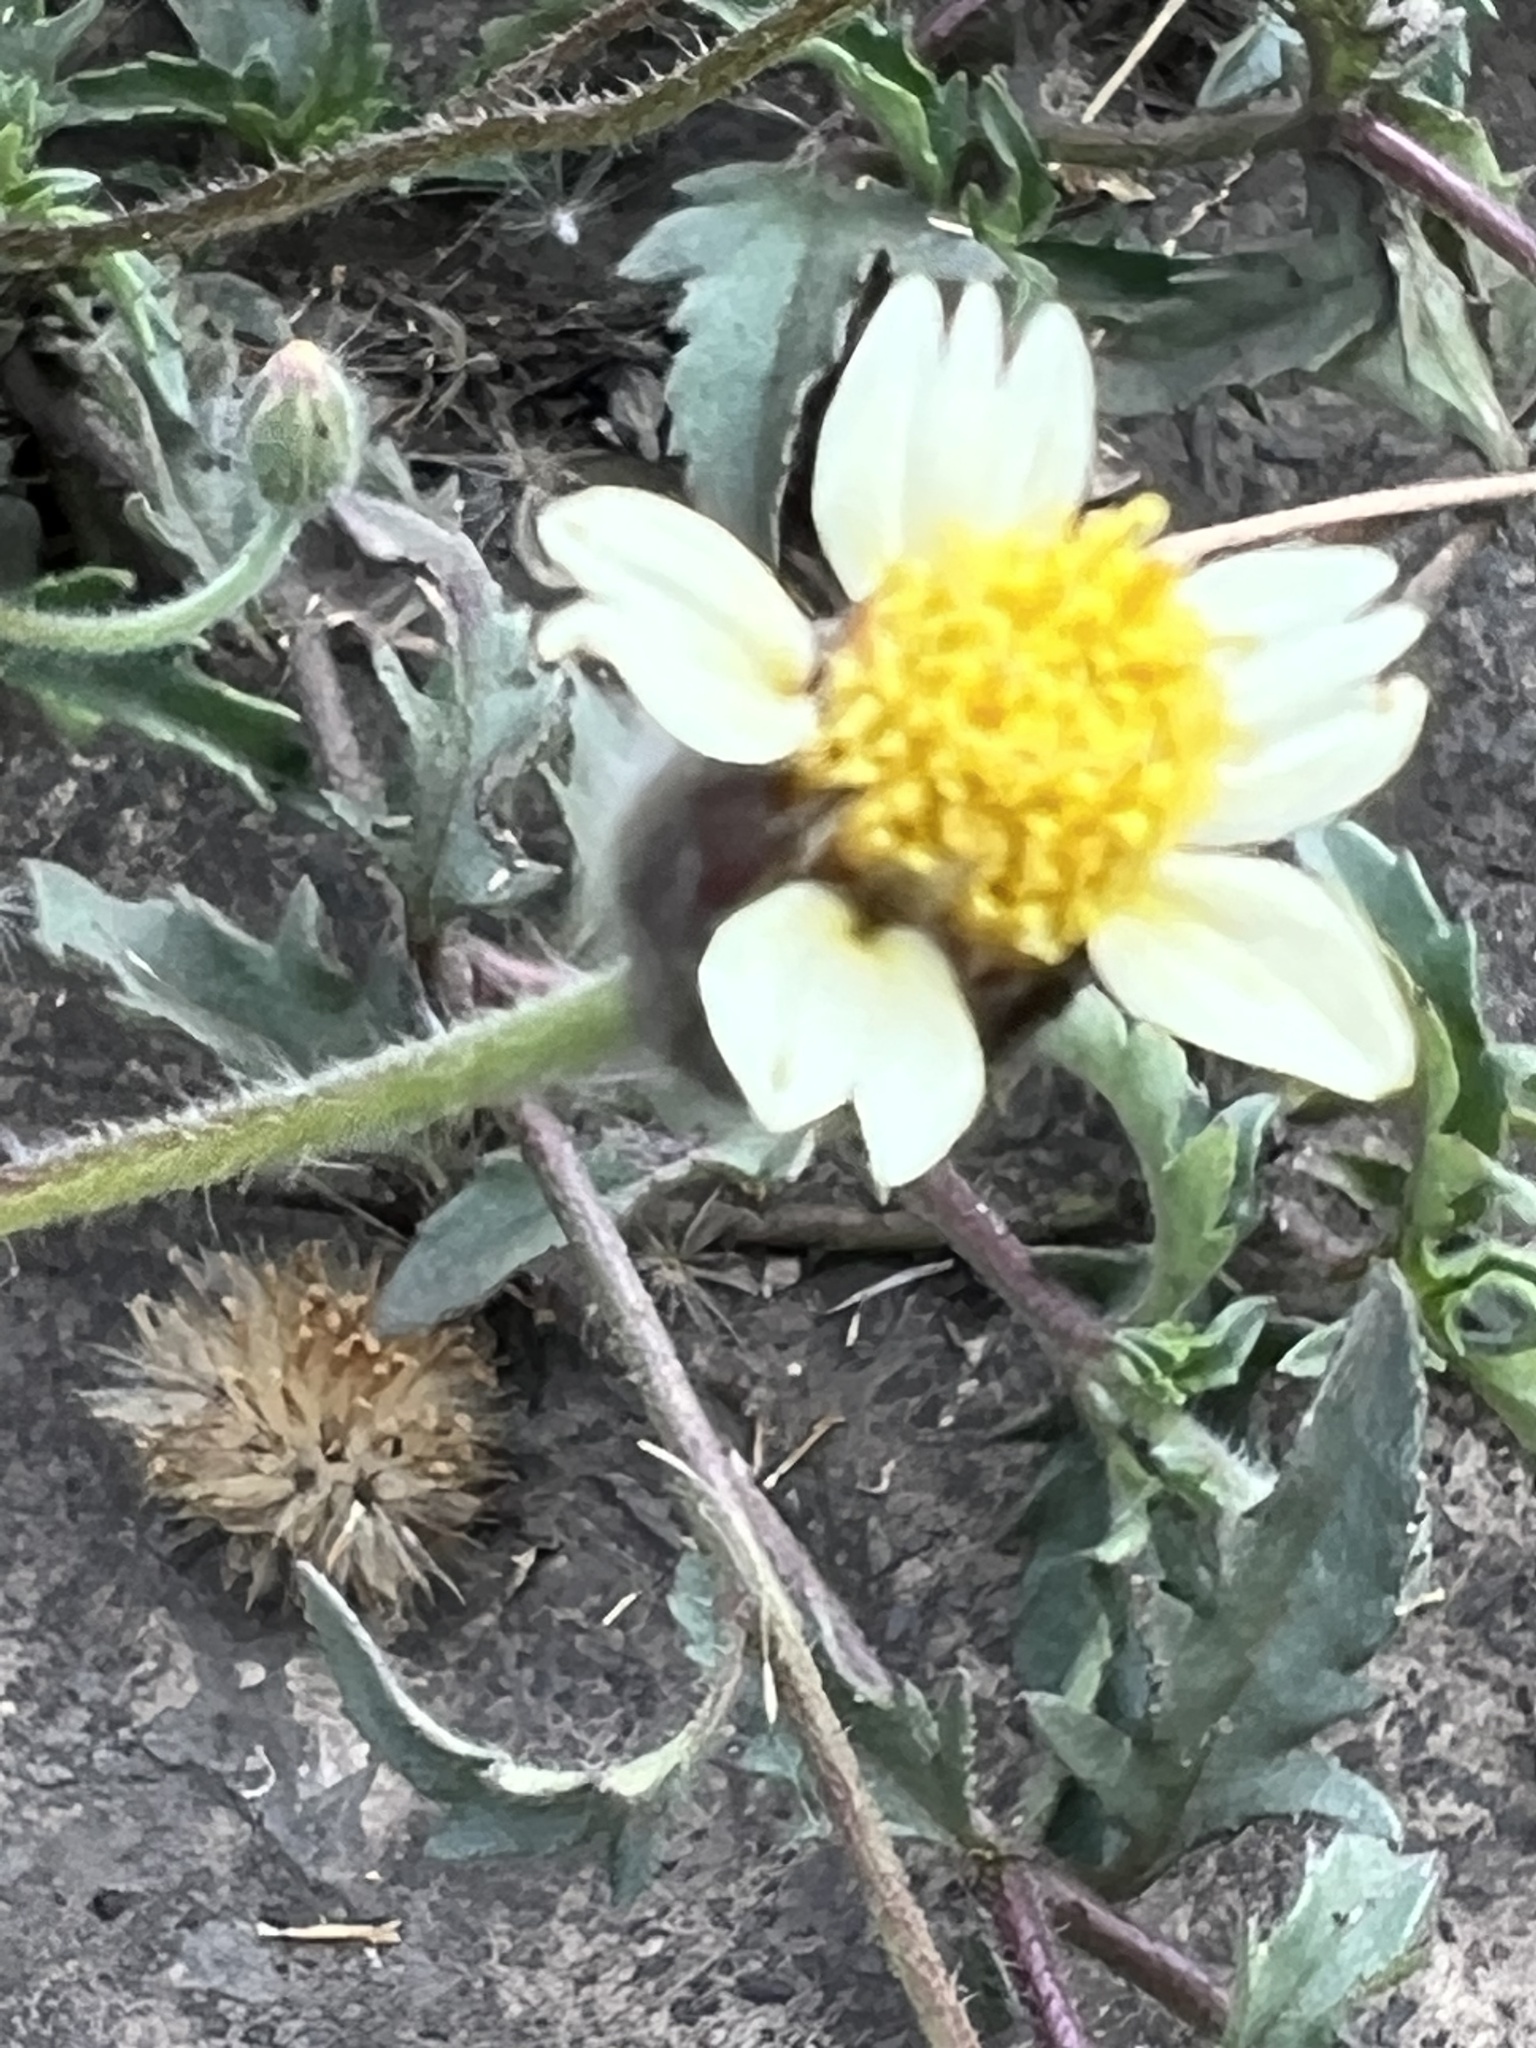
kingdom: Plantae
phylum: Tracheophyta
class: Magnoliopsida
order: Asterales
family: Asteraceae
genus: Tridax
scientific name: Tridax procumbens
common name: Coatbuttons
